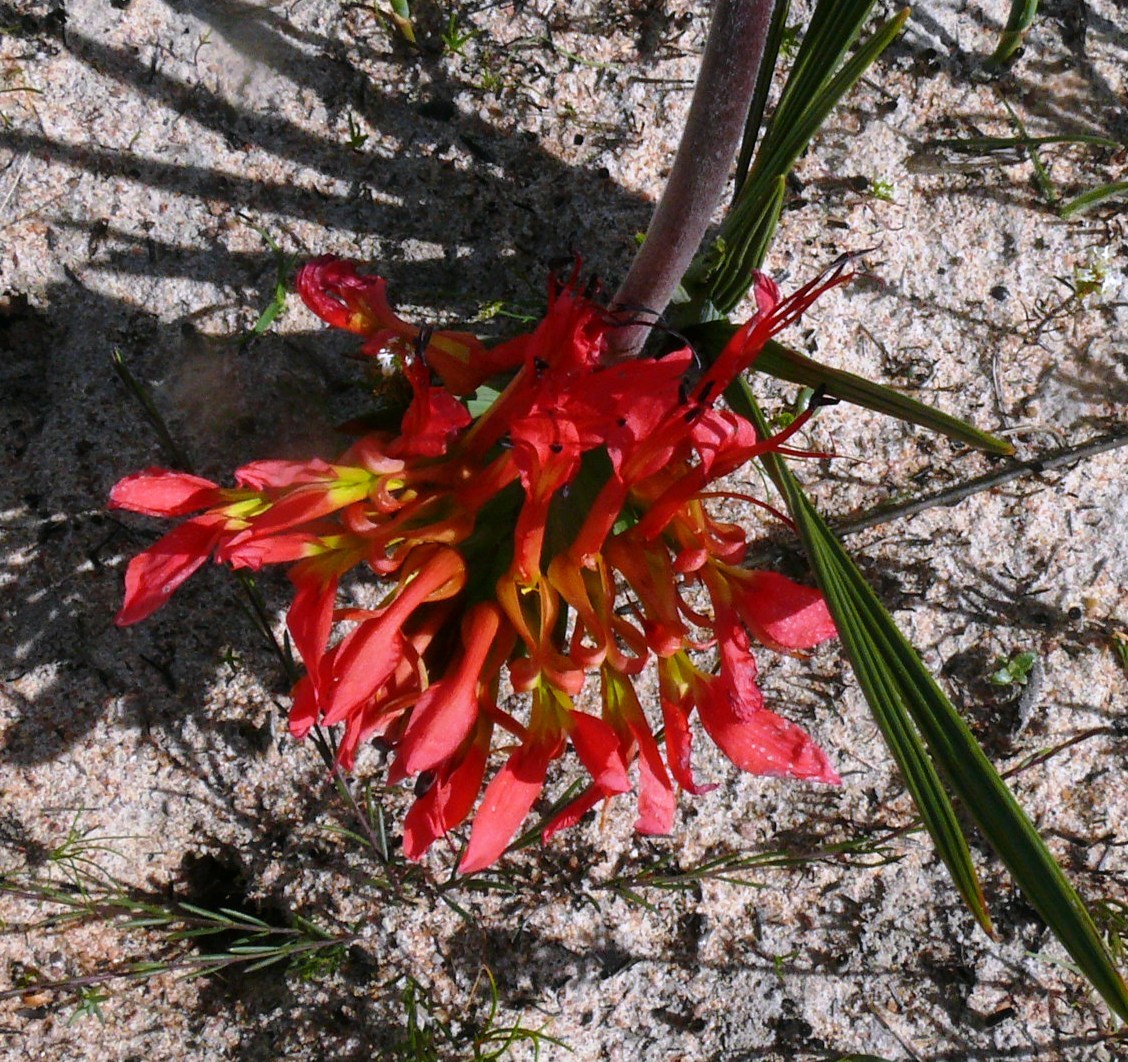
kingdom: Plantae
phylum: Tracheophyta
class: Liliopsida
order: Asparagales
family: Iridaceae
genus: Babiana
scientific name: Babiana ringens
